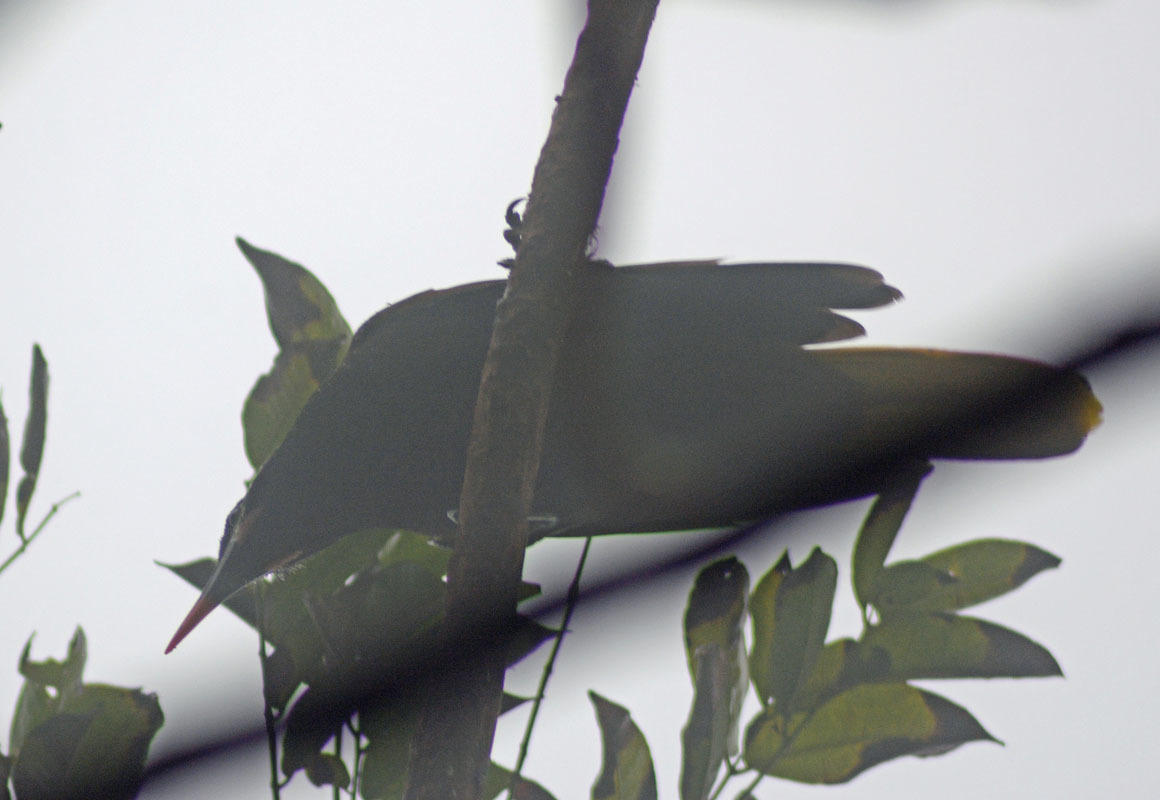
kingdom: Animalia
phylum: Chordata
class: Aves
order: Passeriformes
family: Icteridae
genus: Psarocolius
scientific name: Psarocolius montezuma
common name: Montezuma oropendola
